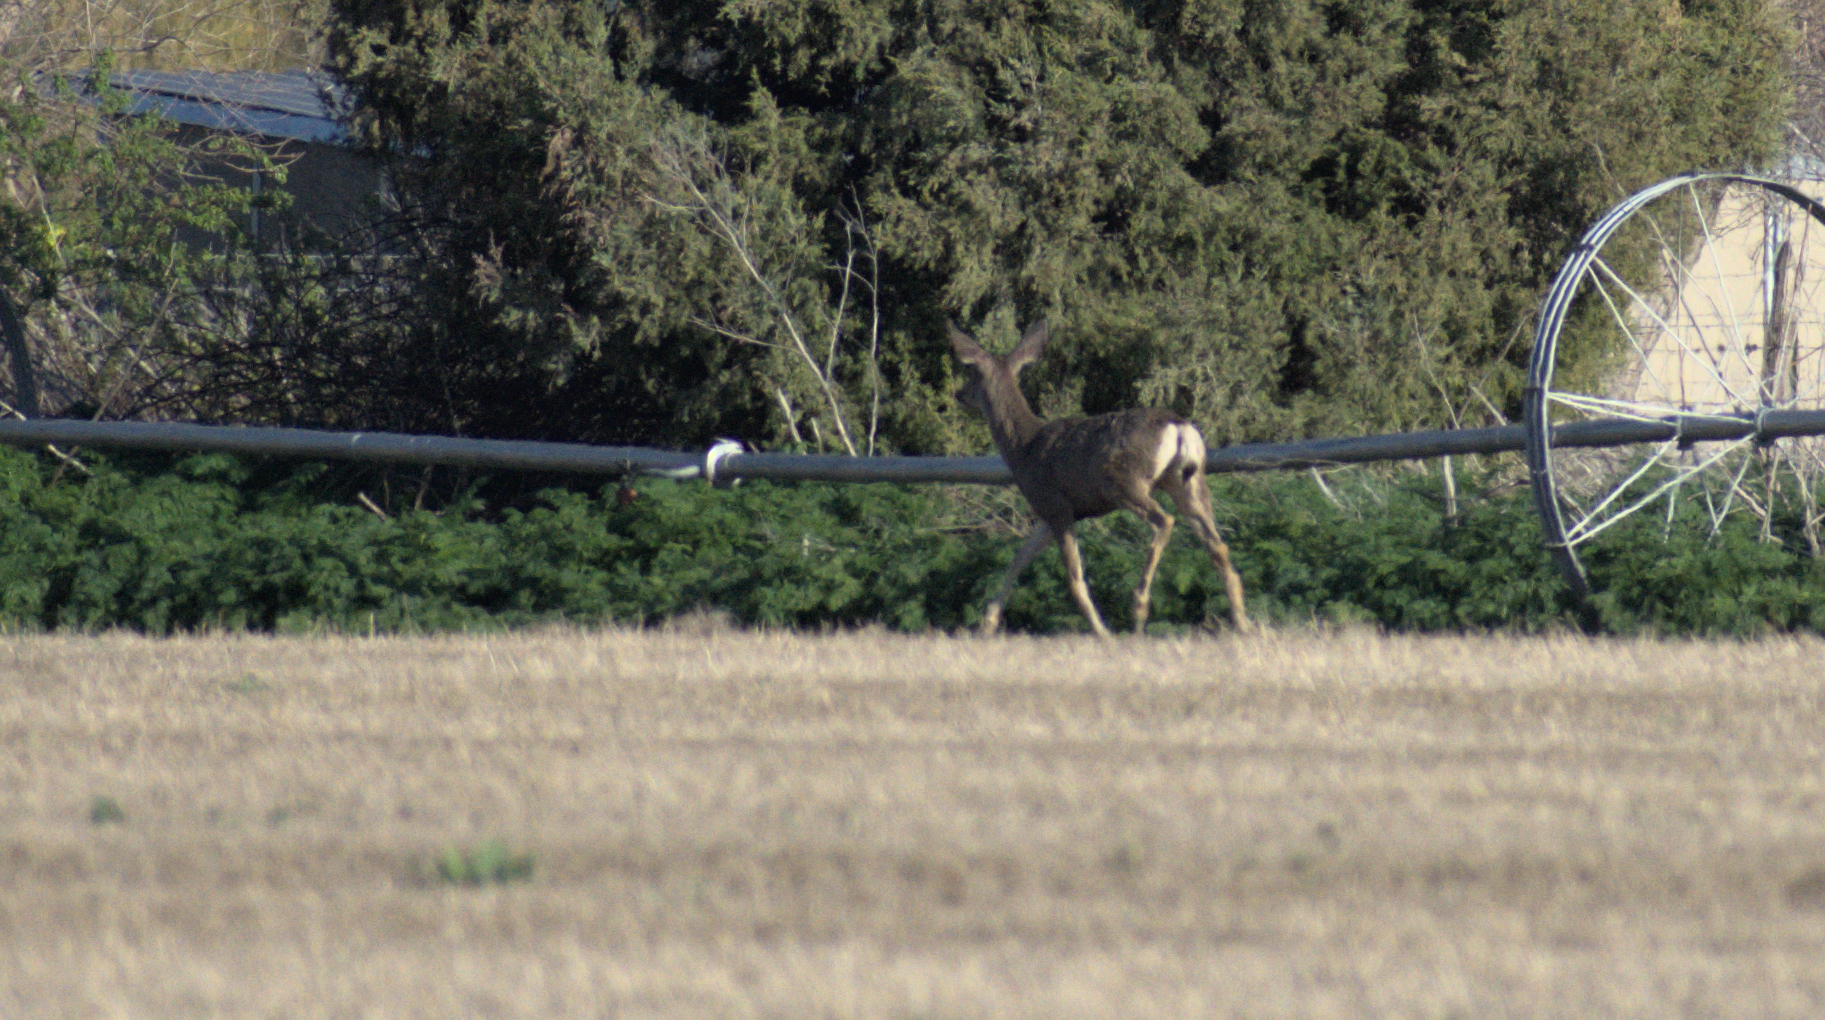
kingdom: Animalia
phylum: Chordata
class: Mammalia
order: Artiodactyla
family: Cervidae
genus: Odocoileus
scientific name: Odocoileus hemionus
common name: Mule deer
